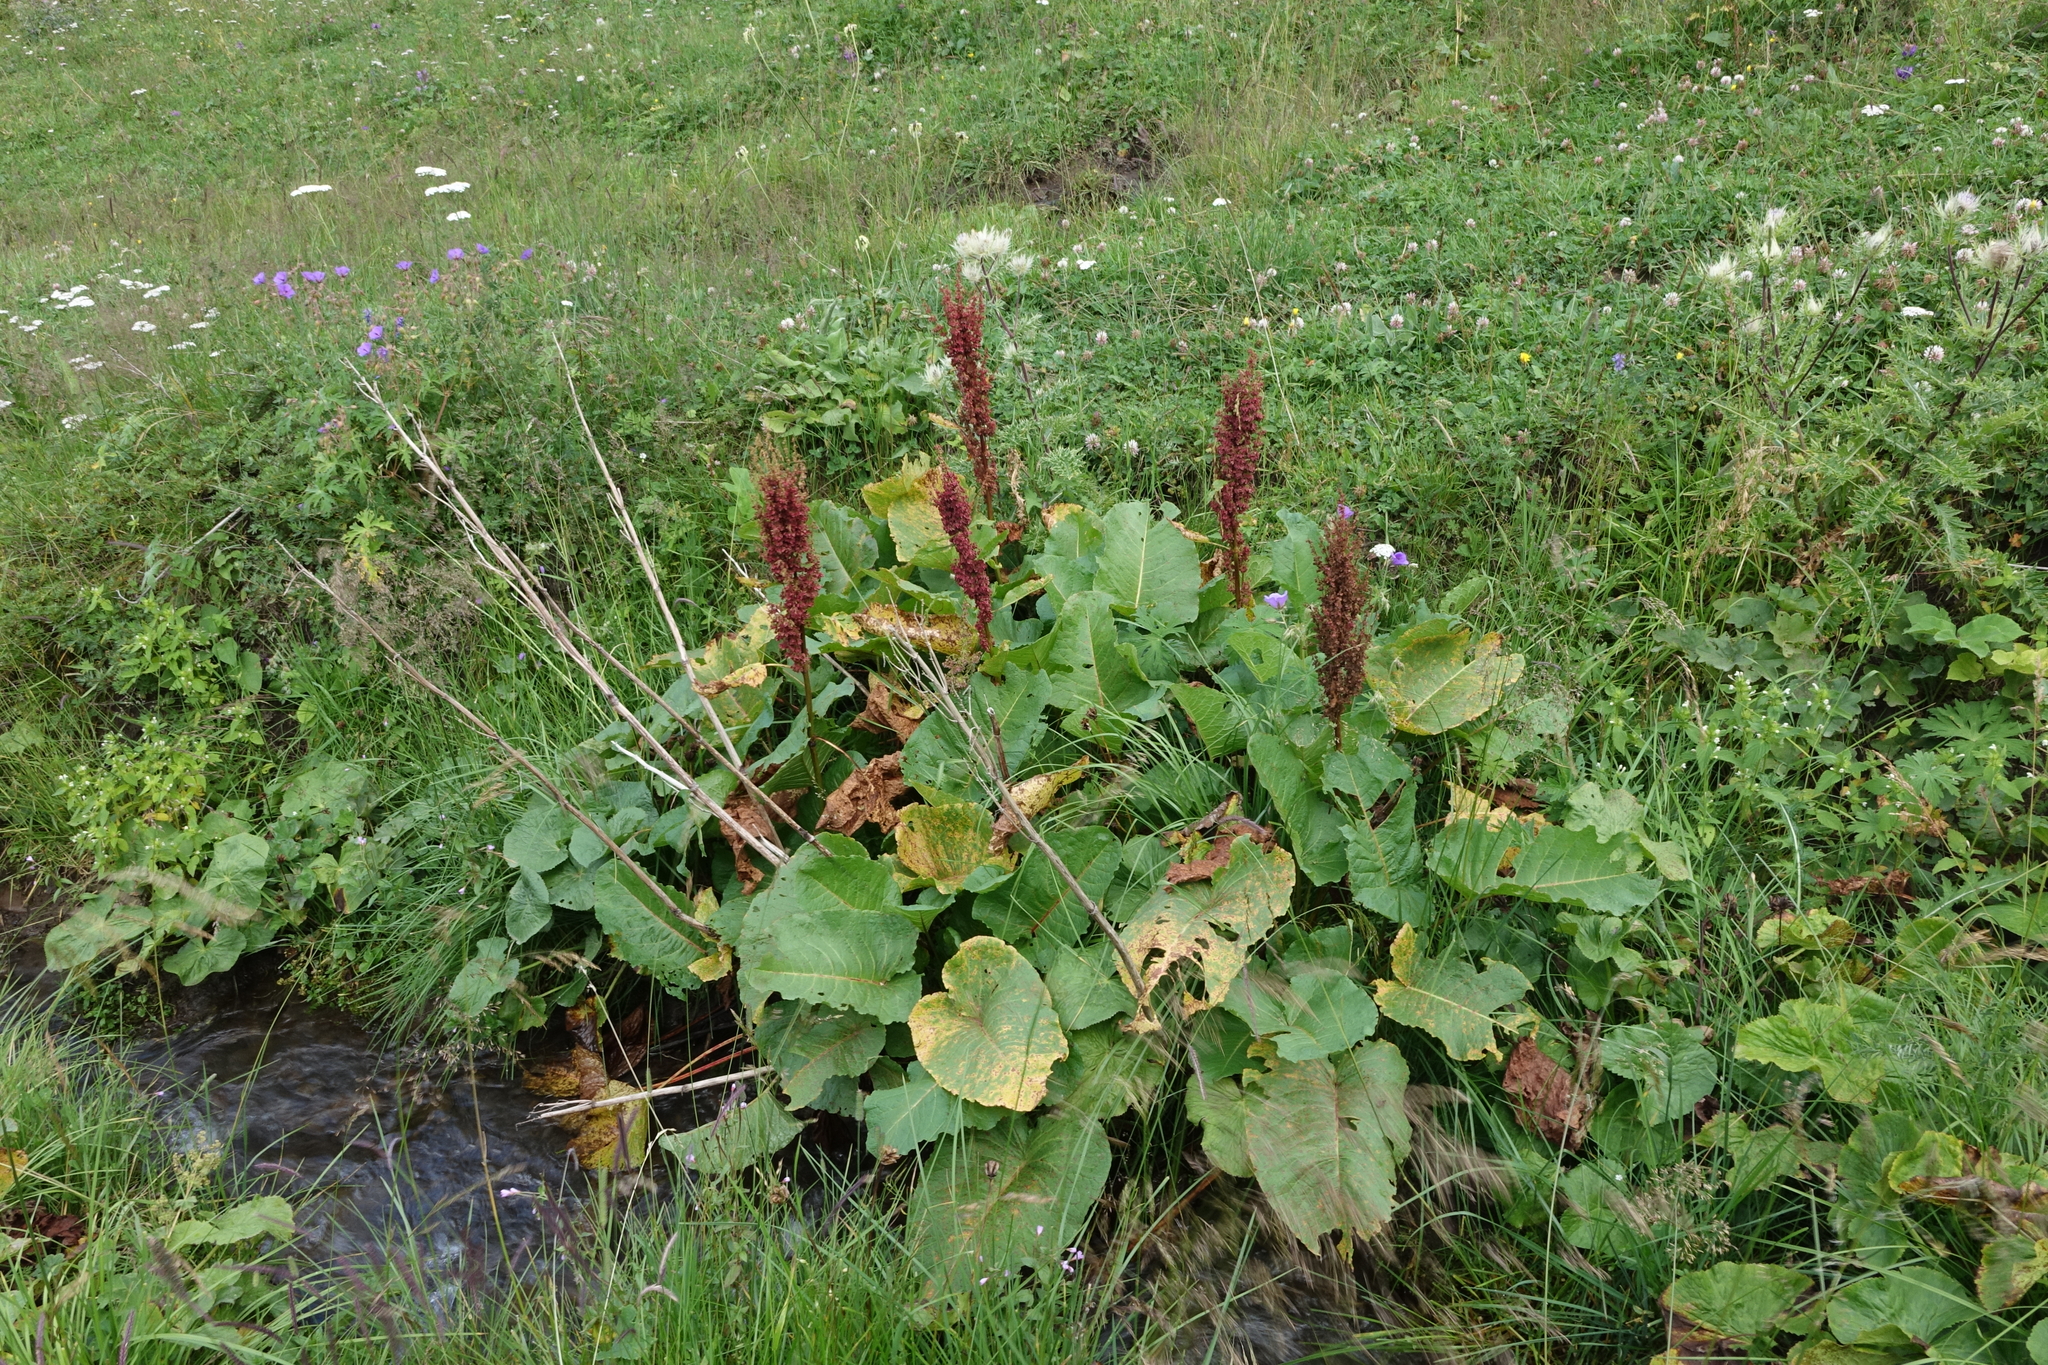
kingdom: Plantae
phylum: Tracheophyta
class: Magnoliopsida
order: Caryophyllales
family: Polygonaceae
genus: Rumex
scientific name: Rumex alpinus
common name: Alpine dock
